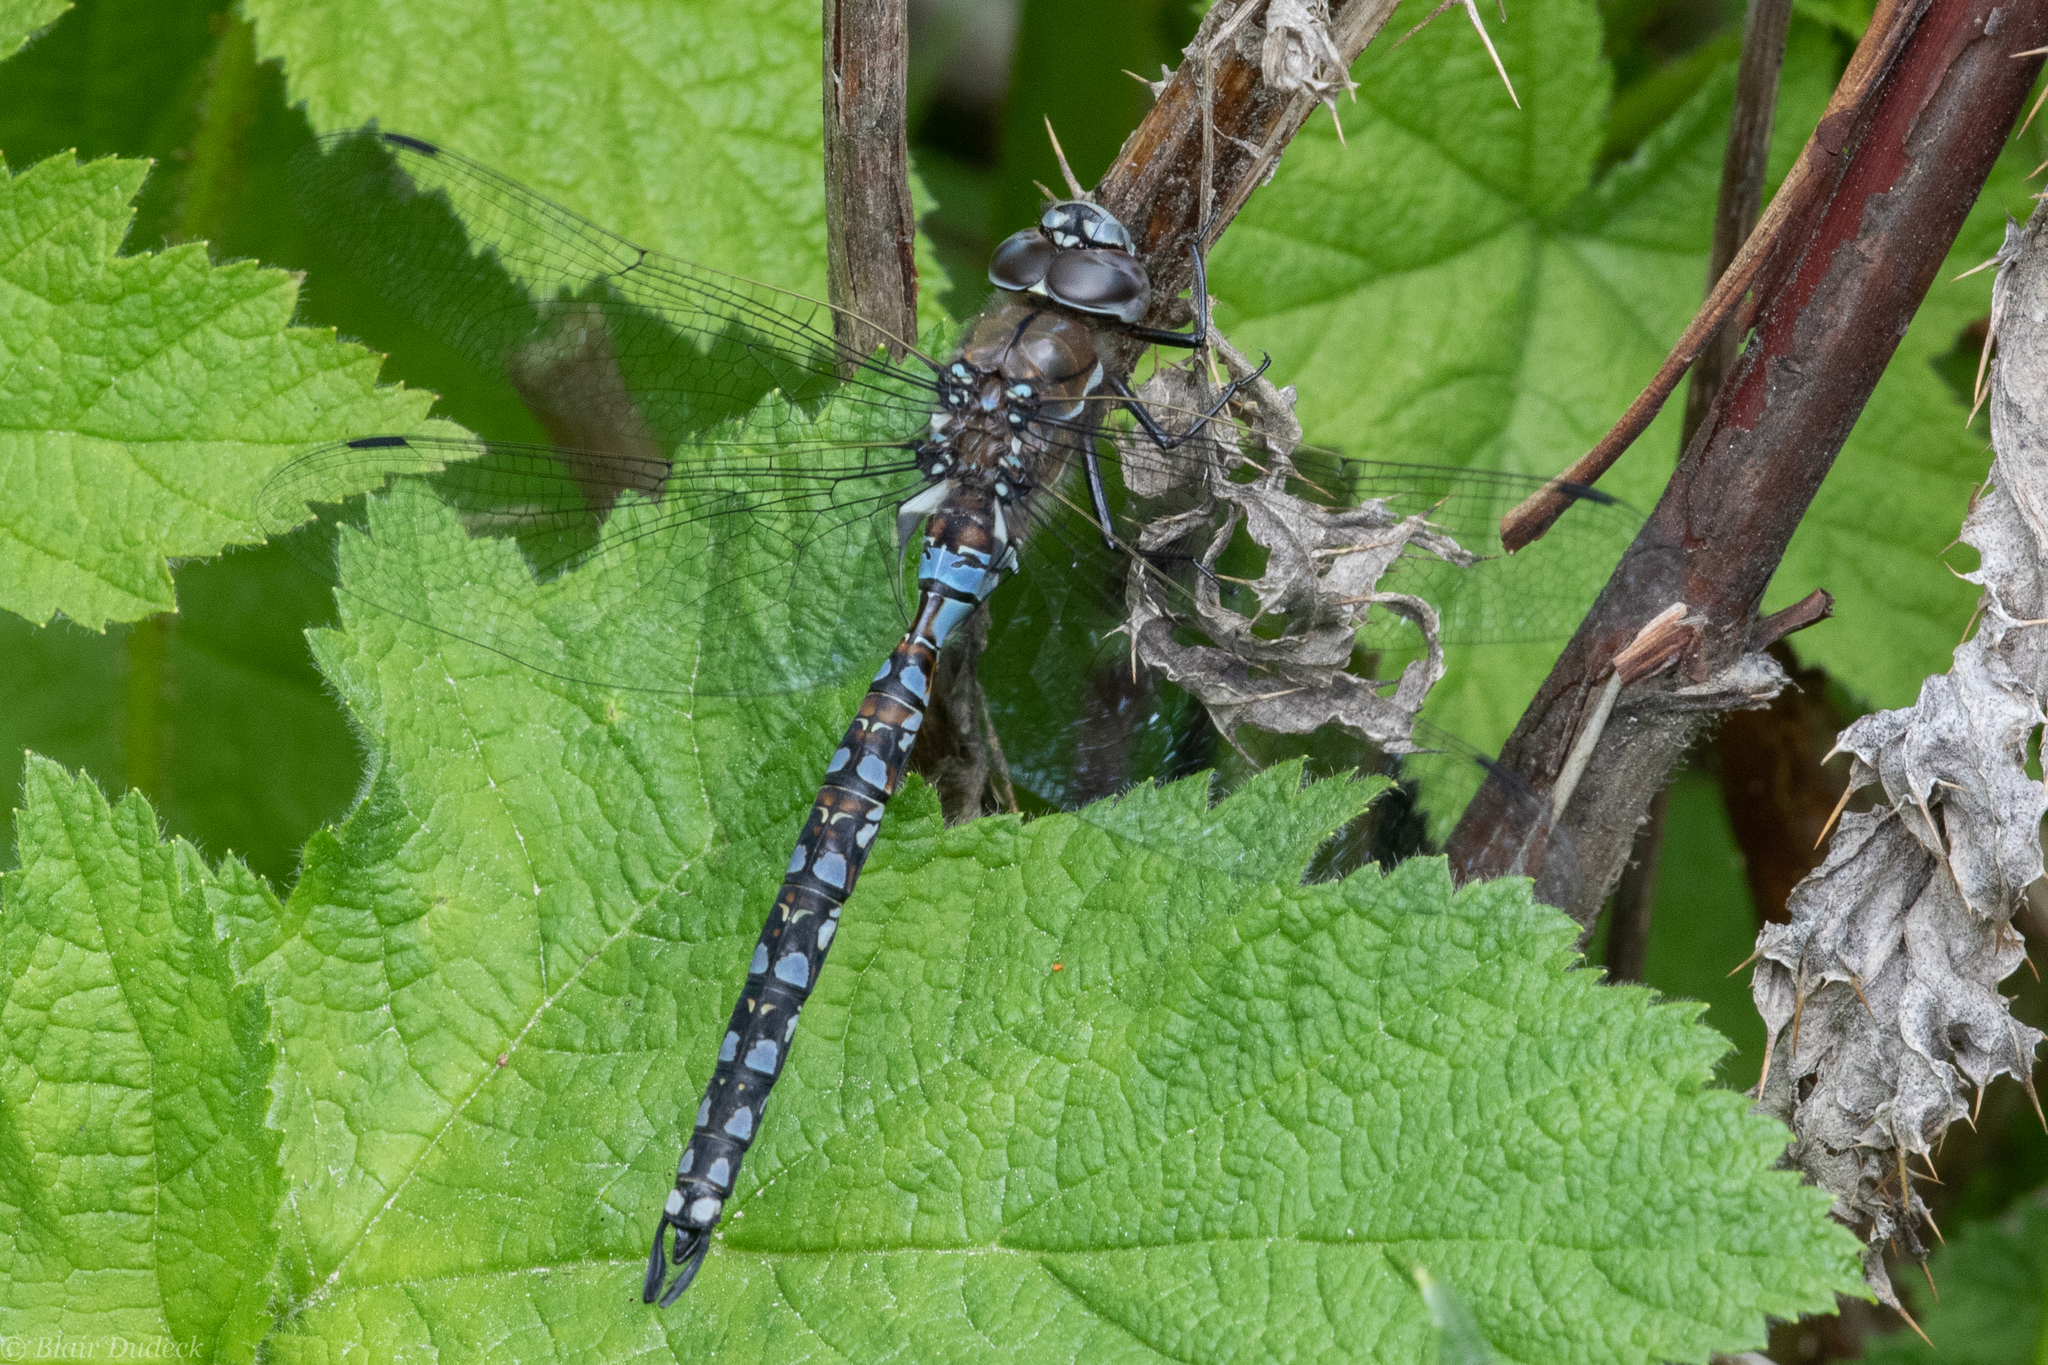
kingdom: Animalia
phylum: Arthropoda
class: Insecta
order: Odonata
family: Aeshnidae
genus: Rhionaeschna
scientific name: Rhionaeschna californica
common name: California darner
